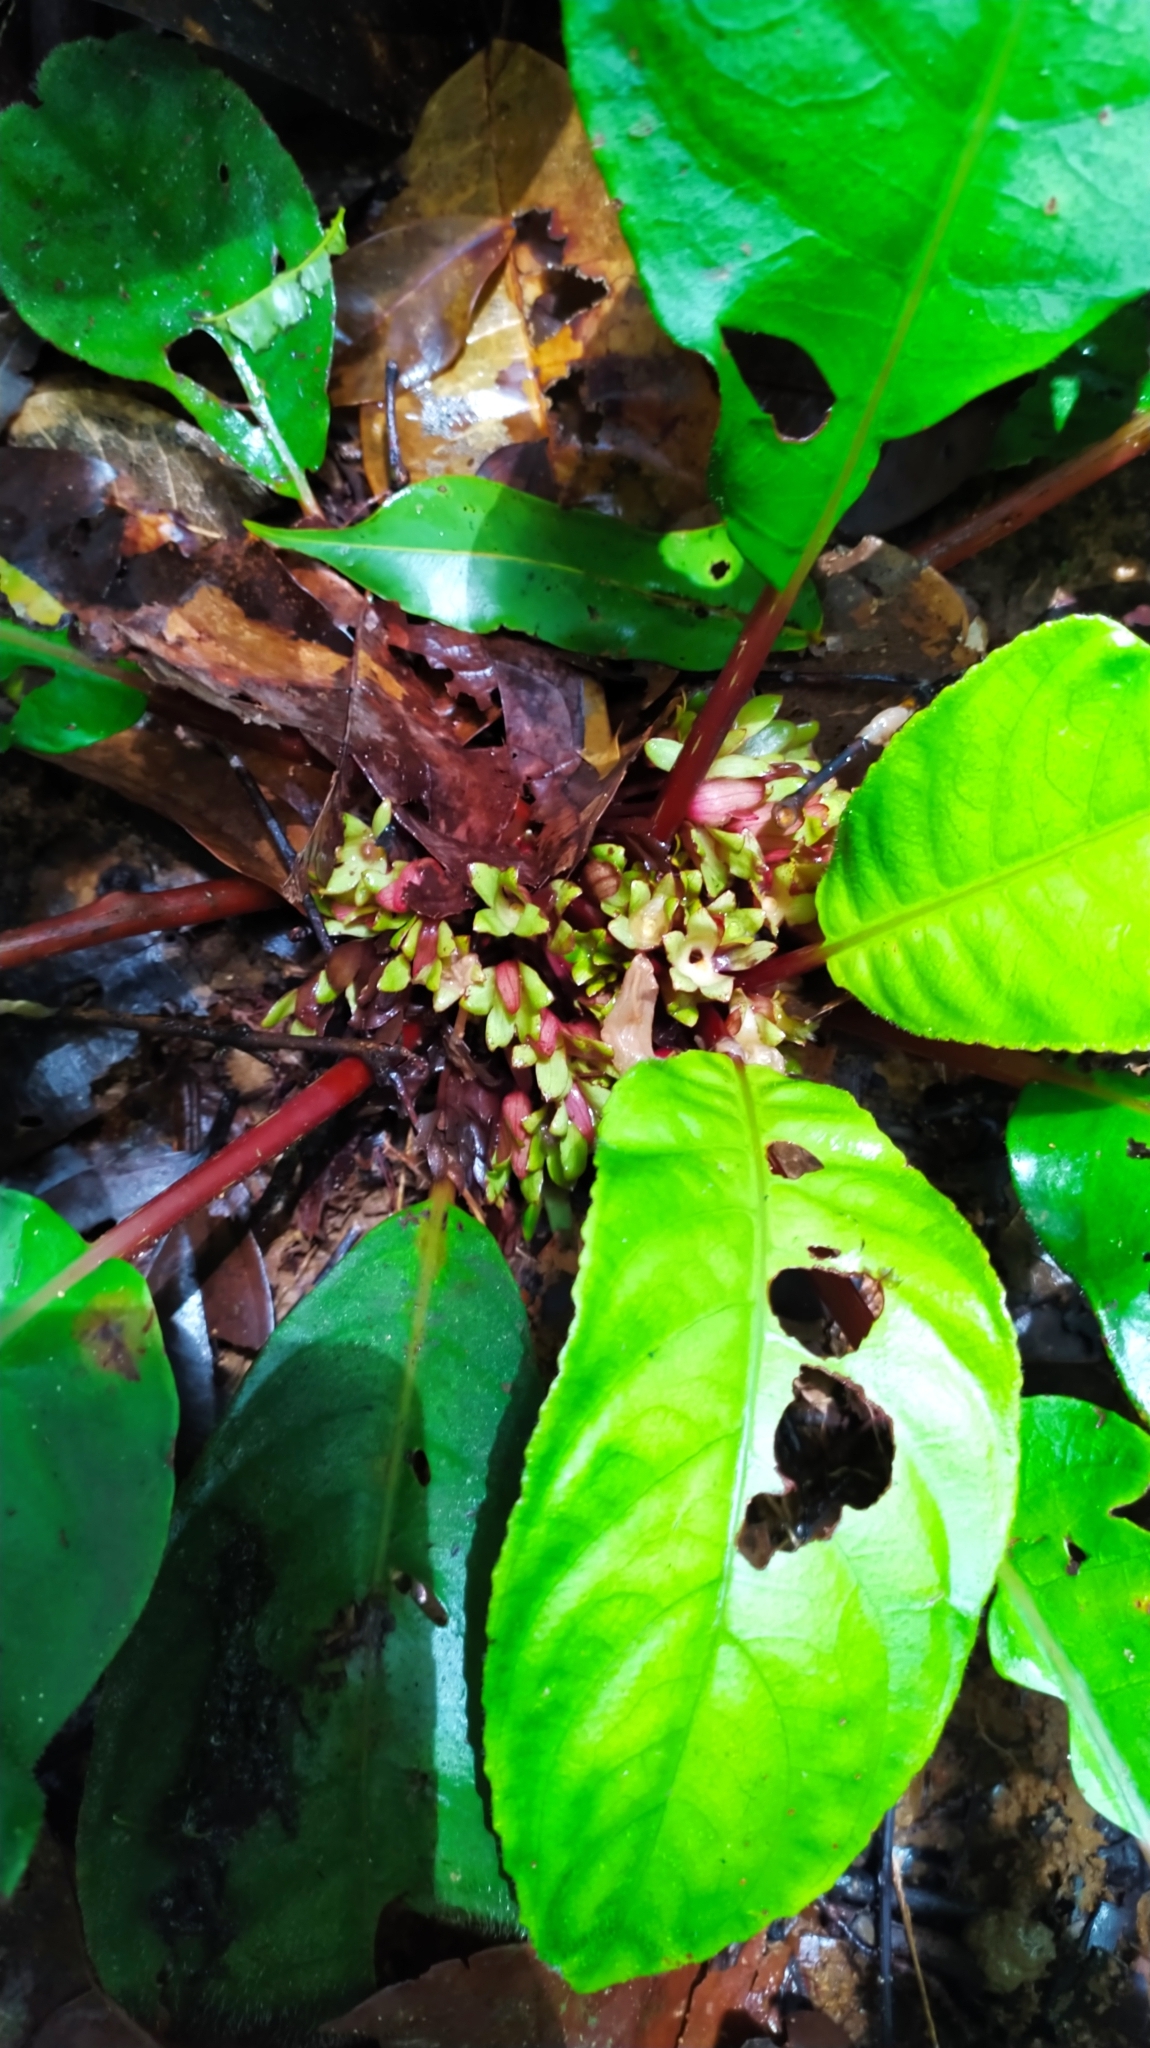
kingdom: Plantae
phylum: Tracheophyta
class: Magnoliopsida
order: Lamiales
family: Gesneriaceae
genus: Centrosolenia
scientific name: Centrosolenia densa
